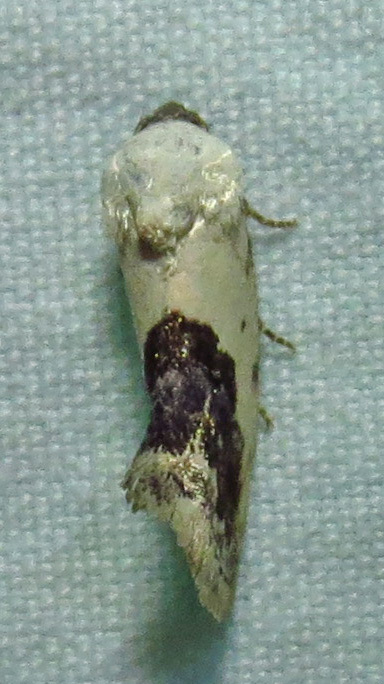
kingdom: Animalia
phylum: Arthropoda
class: Insecta
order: Lepidoptera
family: Noctuidae
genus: Acontia
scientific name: Acontia erastrioides
